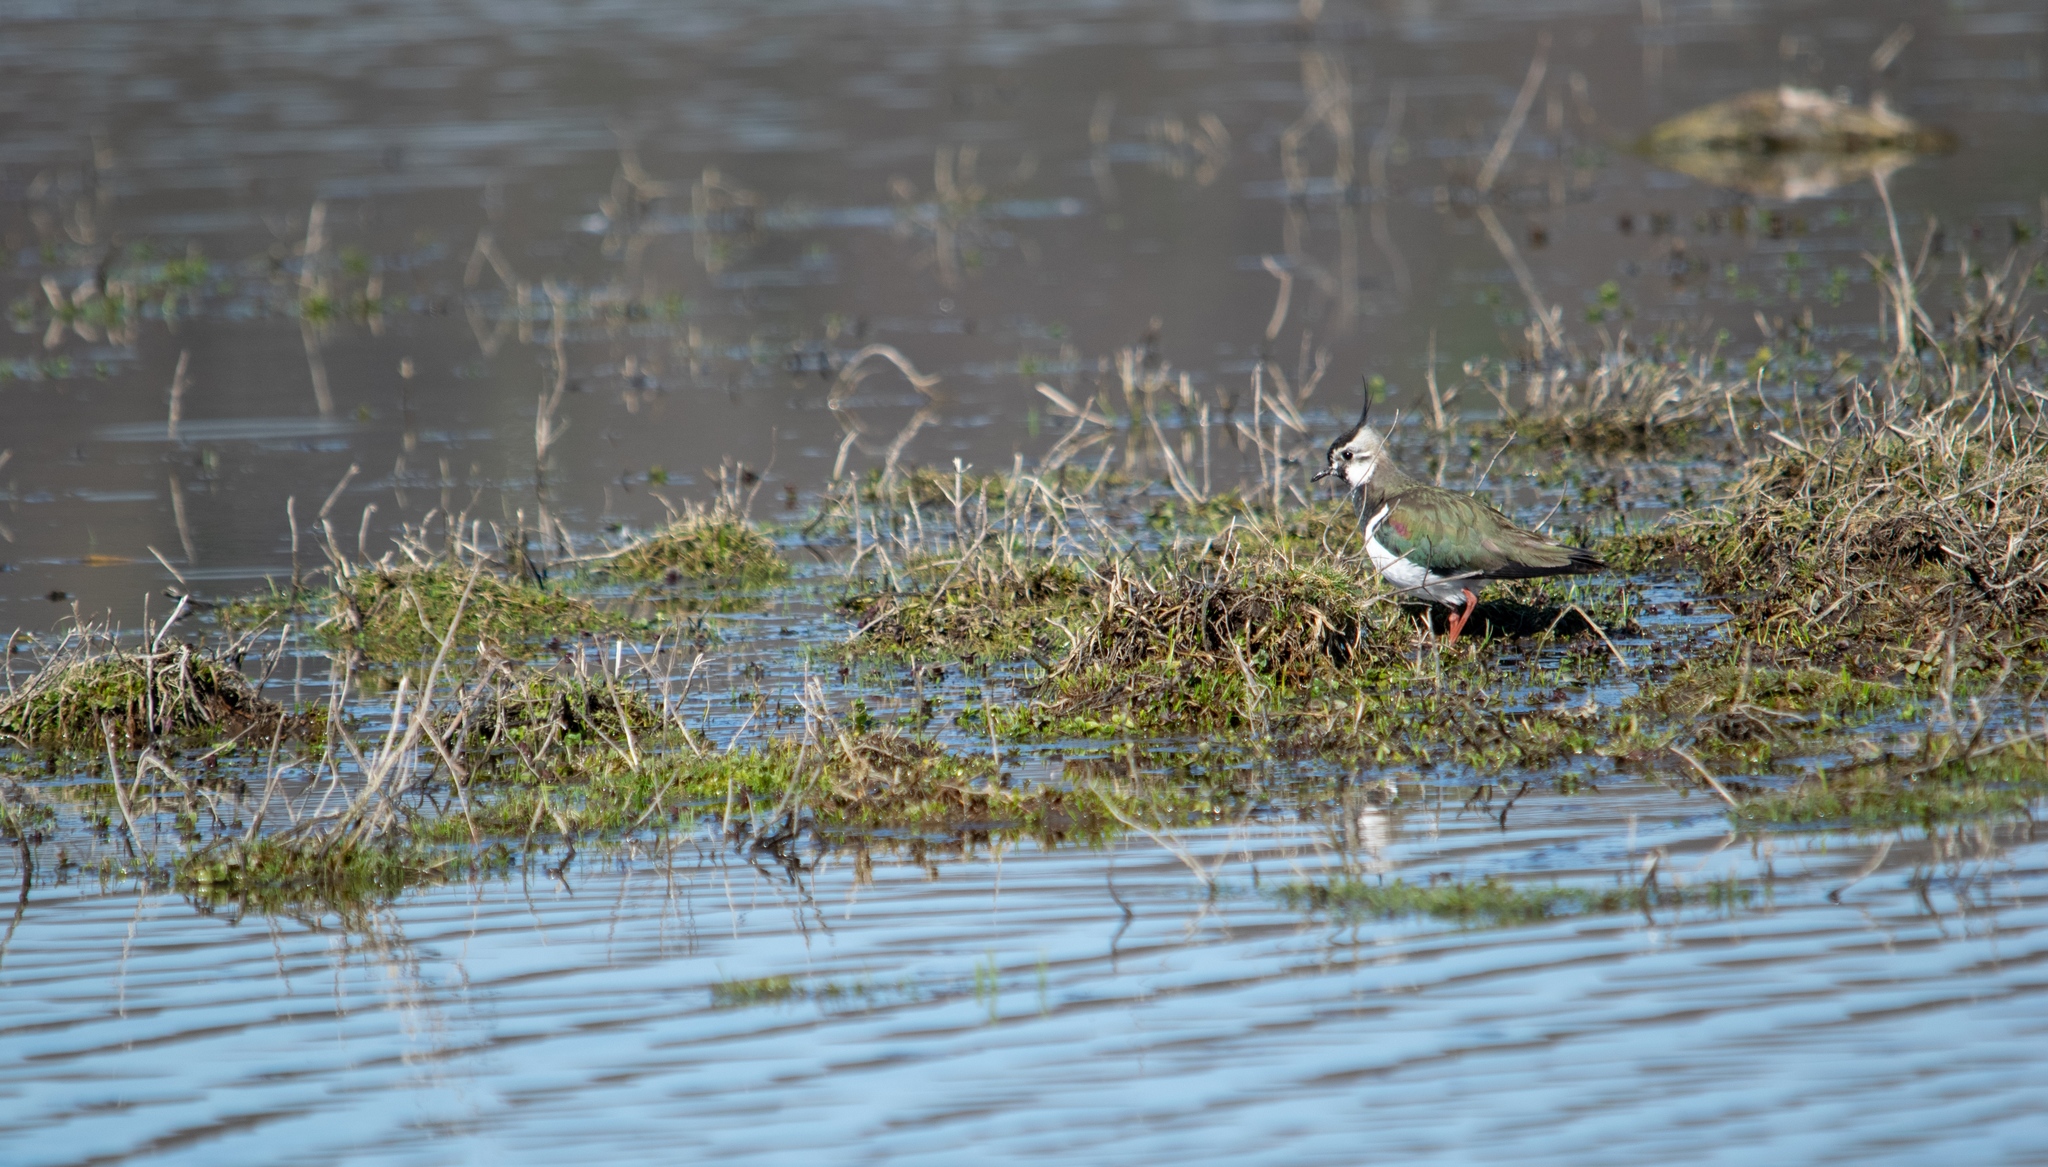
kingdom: Animalia
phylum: Chordata
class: Aves
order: Charadriiformes
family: Charadriidae
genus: Vanellus
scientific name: Vanellus vanellus
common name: Northern lapwing
